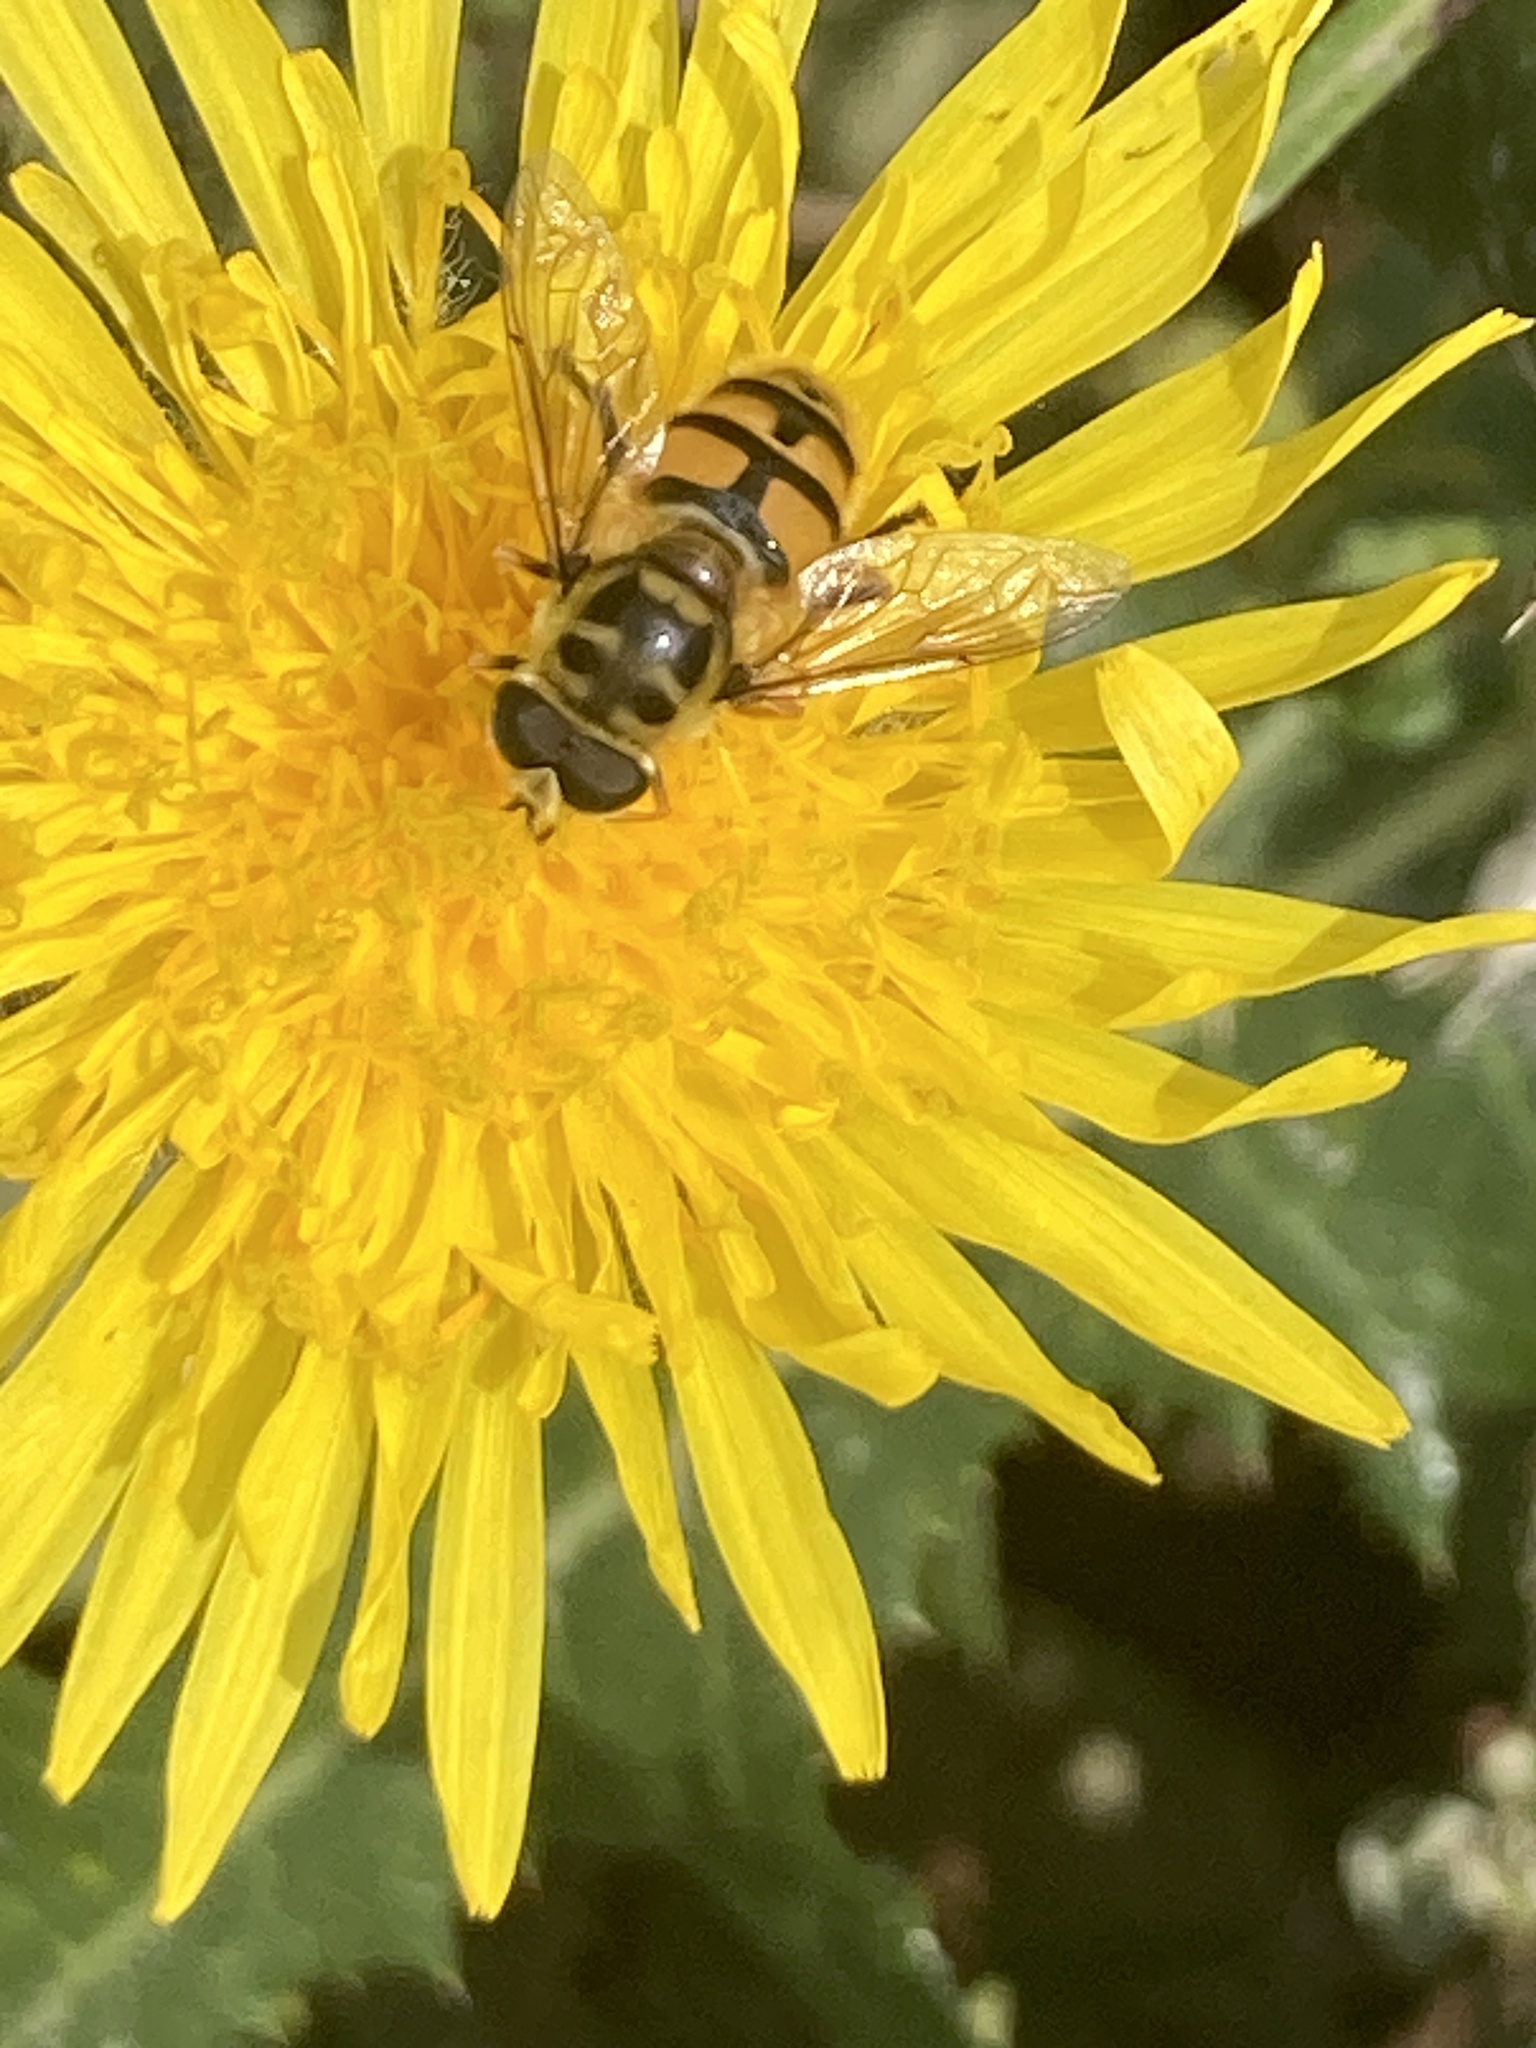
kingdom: Animalia
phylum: Arthropoda
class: Insecta
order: Diptera
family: Syrphidae
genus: Myathropa
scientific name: Myathropa florea
